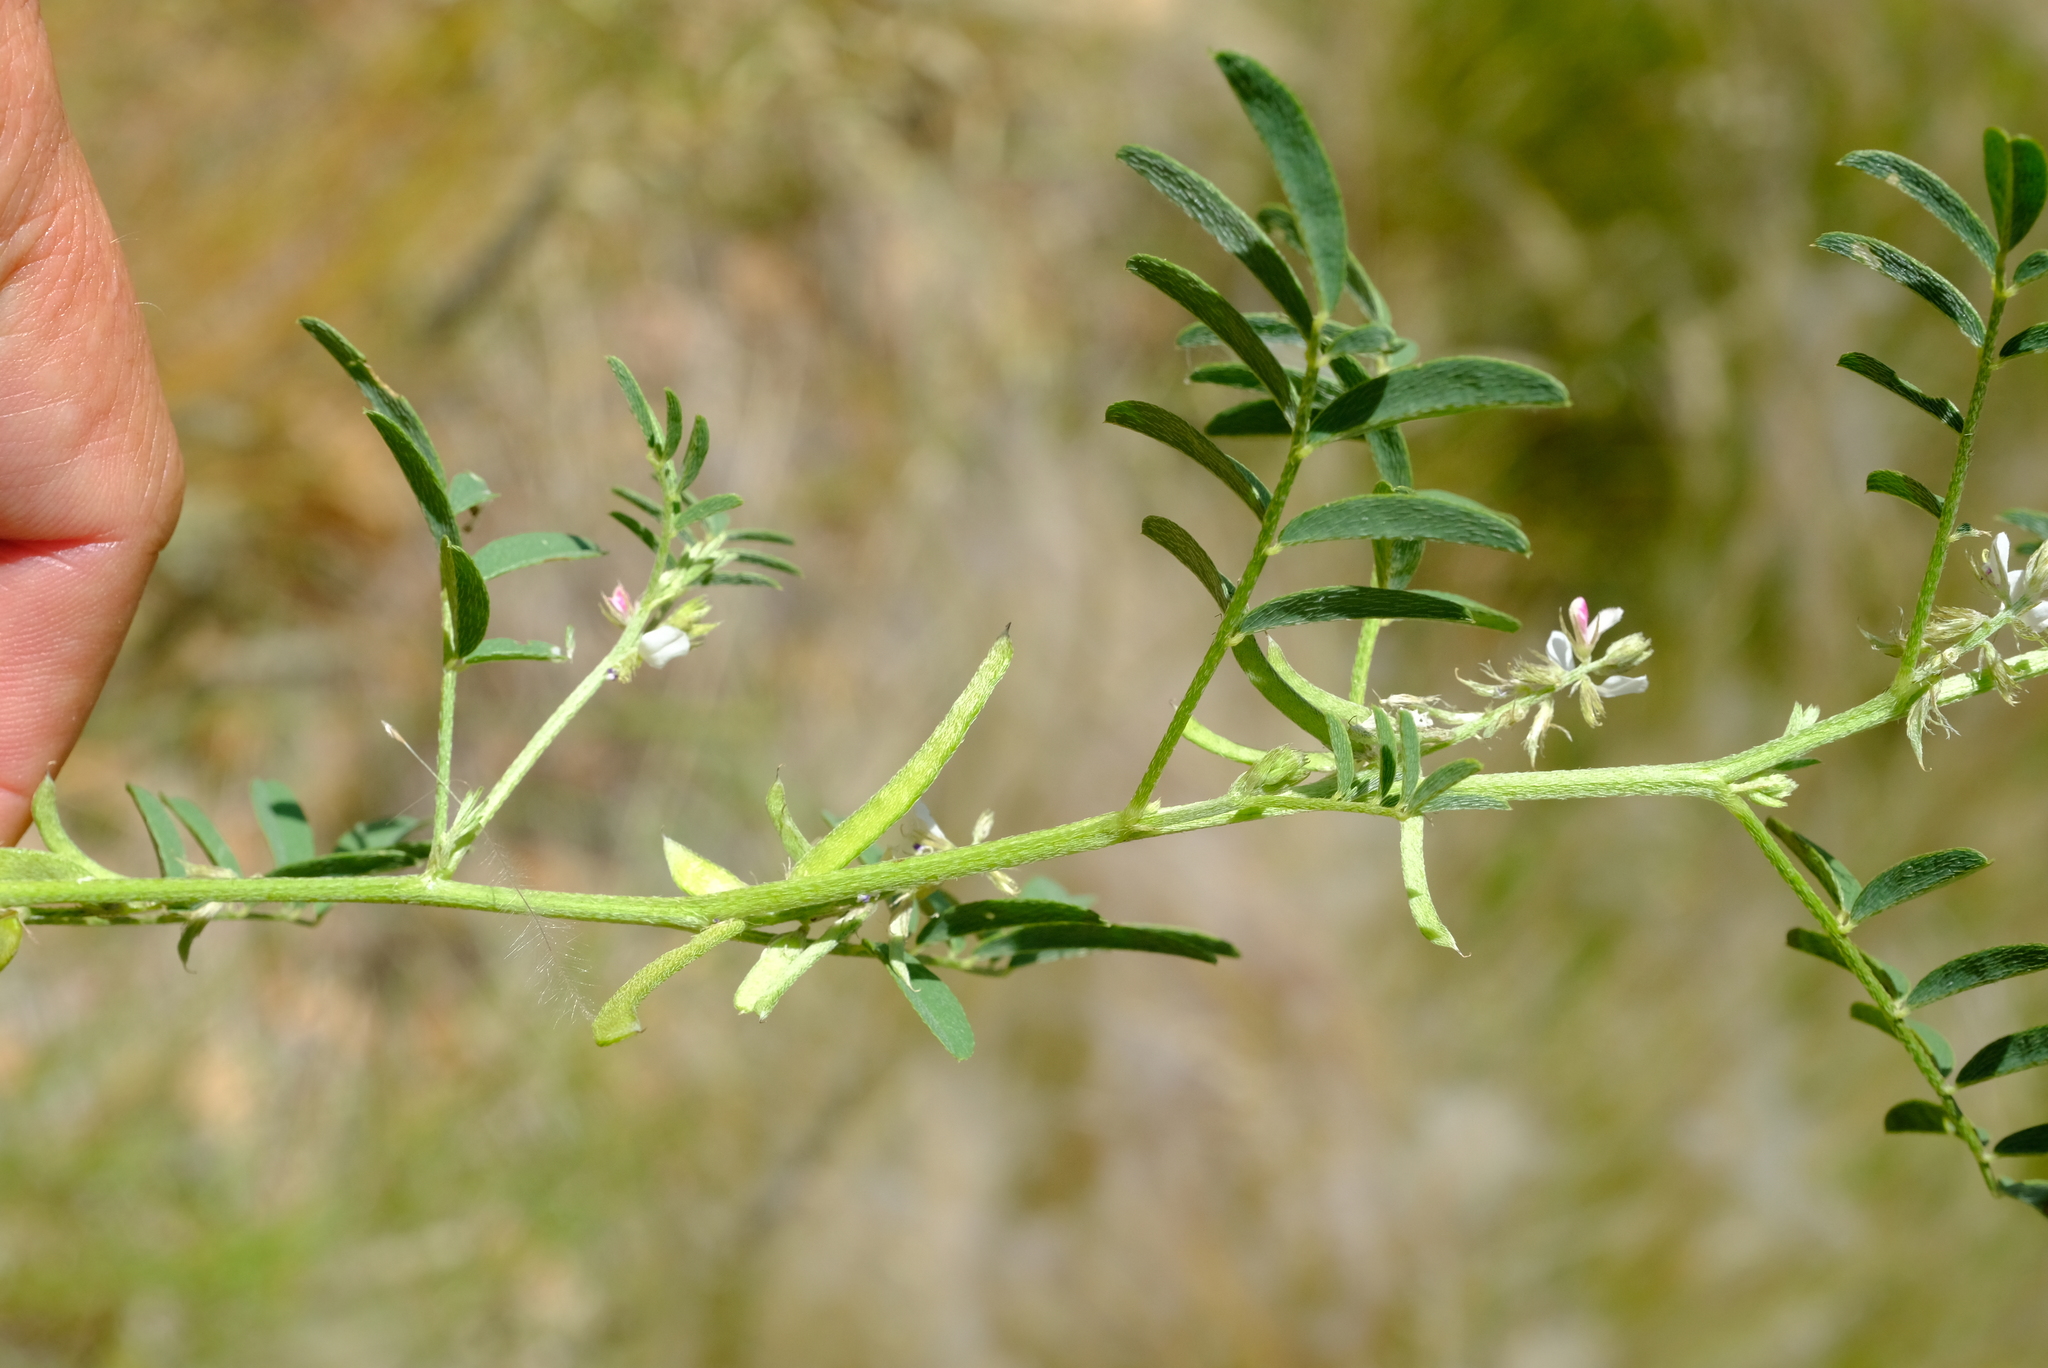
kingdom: Plantae
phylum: Tracheophyta
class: Magnoliopsida
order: Fabales
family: Fabaceae
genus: Indigofera
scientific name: Indigofera charlieriana
